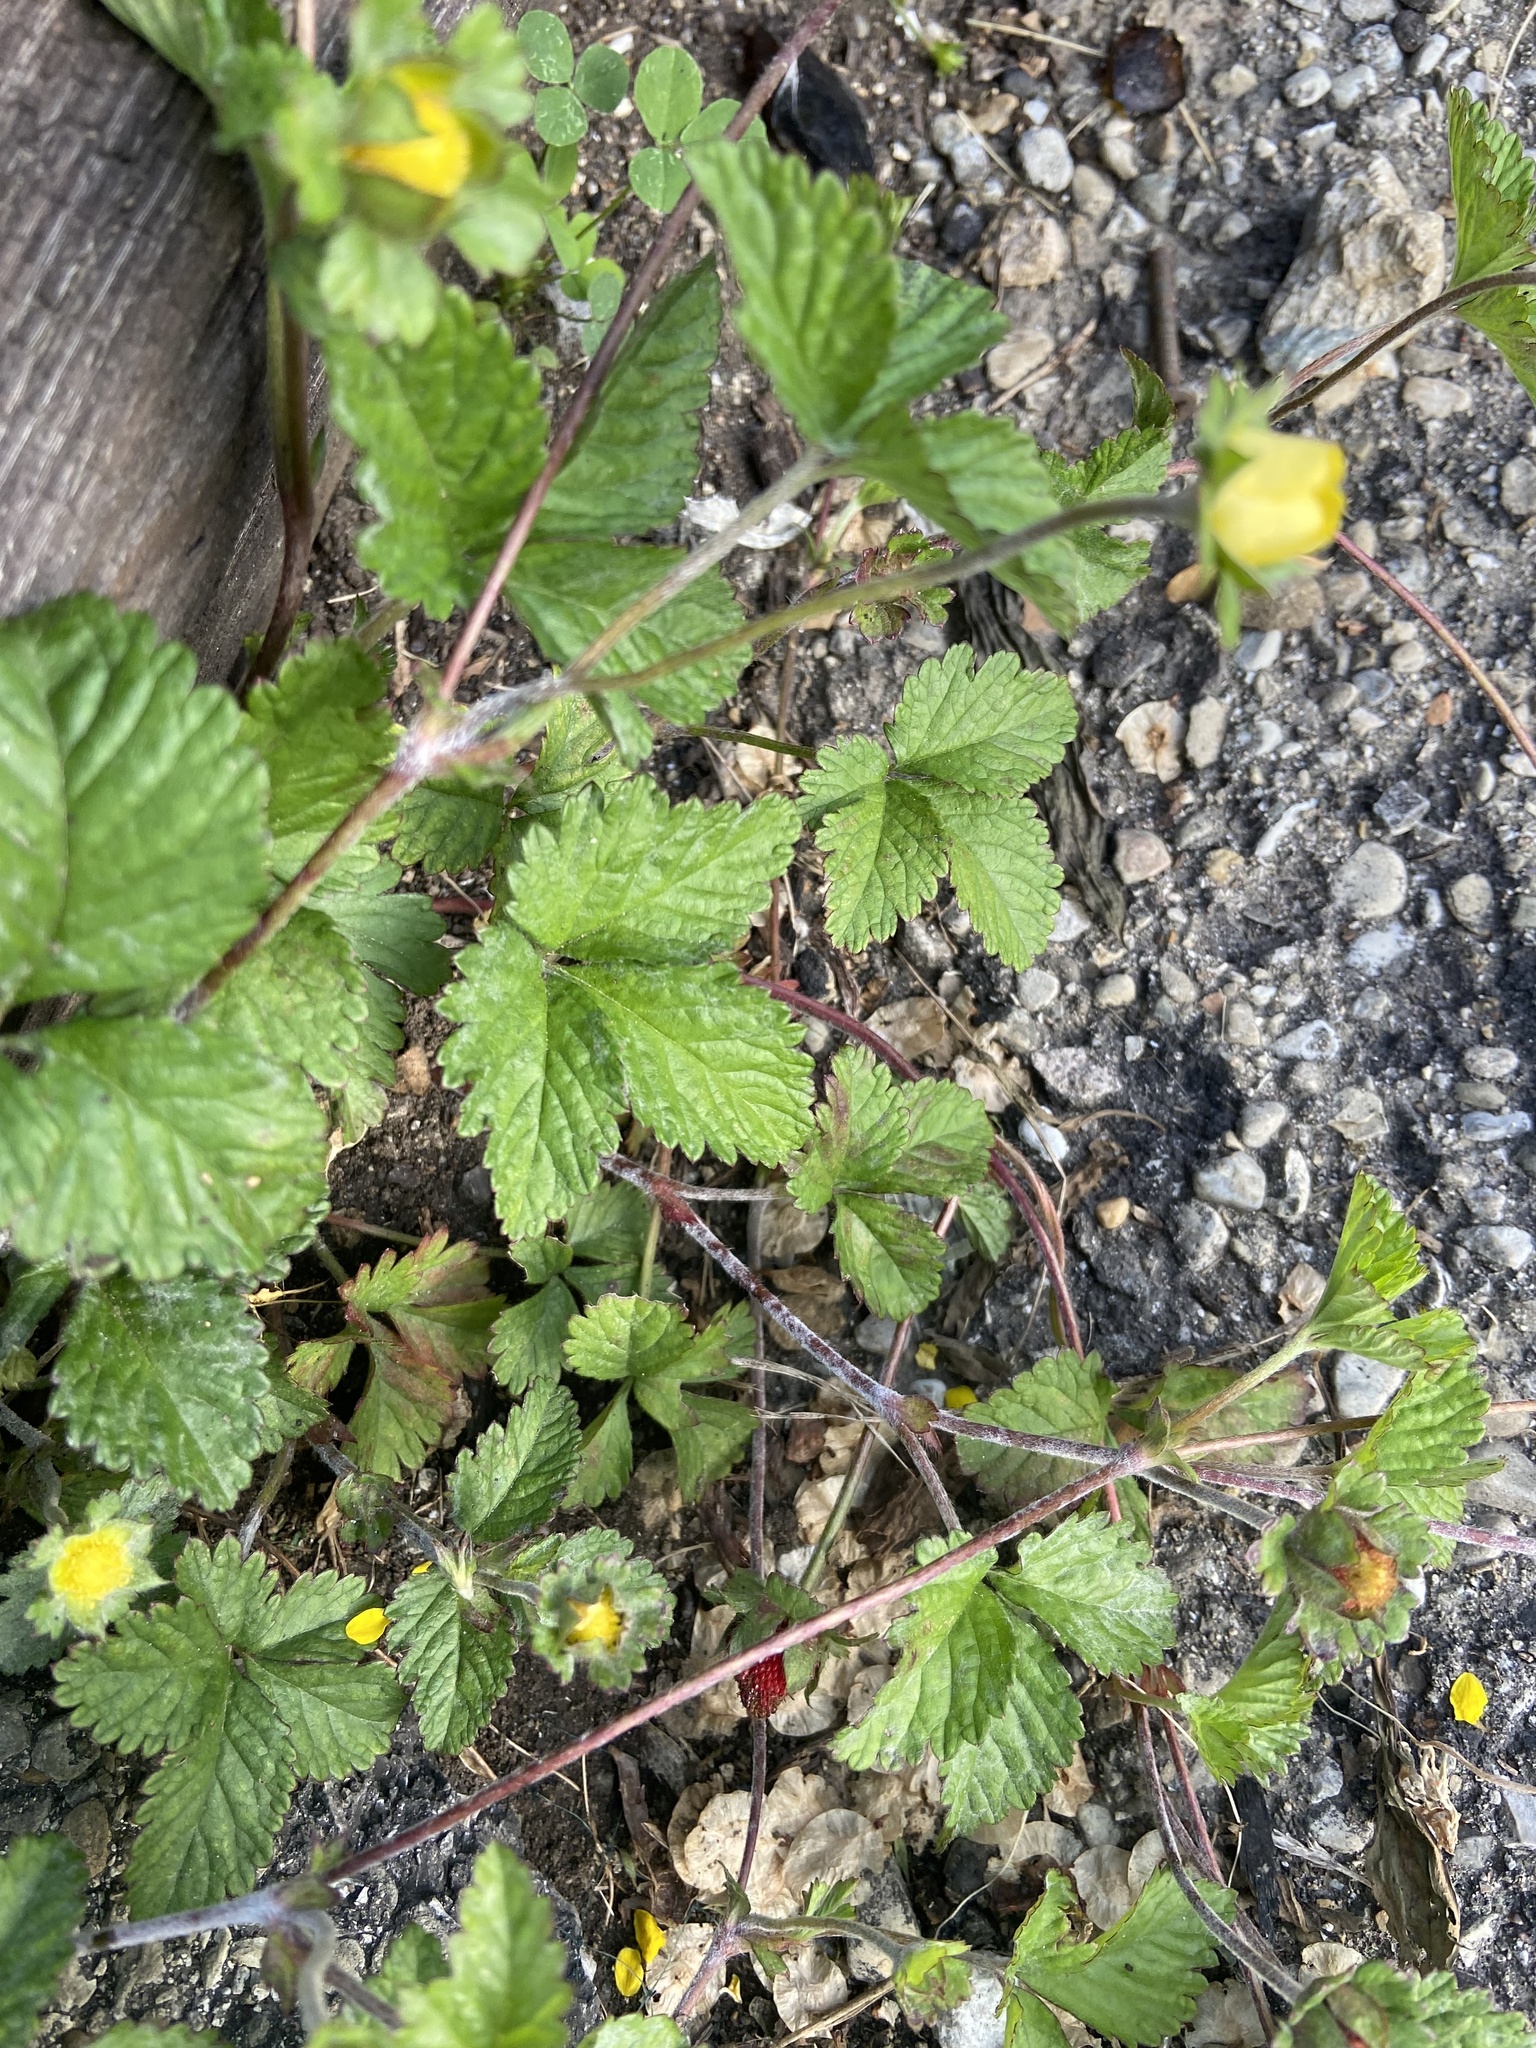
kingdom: Plantae
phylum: Tracheophyta
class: Magnoliopsida
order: Rosales
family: Rosaceae
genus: Potentilla
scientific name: Potentilla indica
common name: Yellow-flowered strawberry
